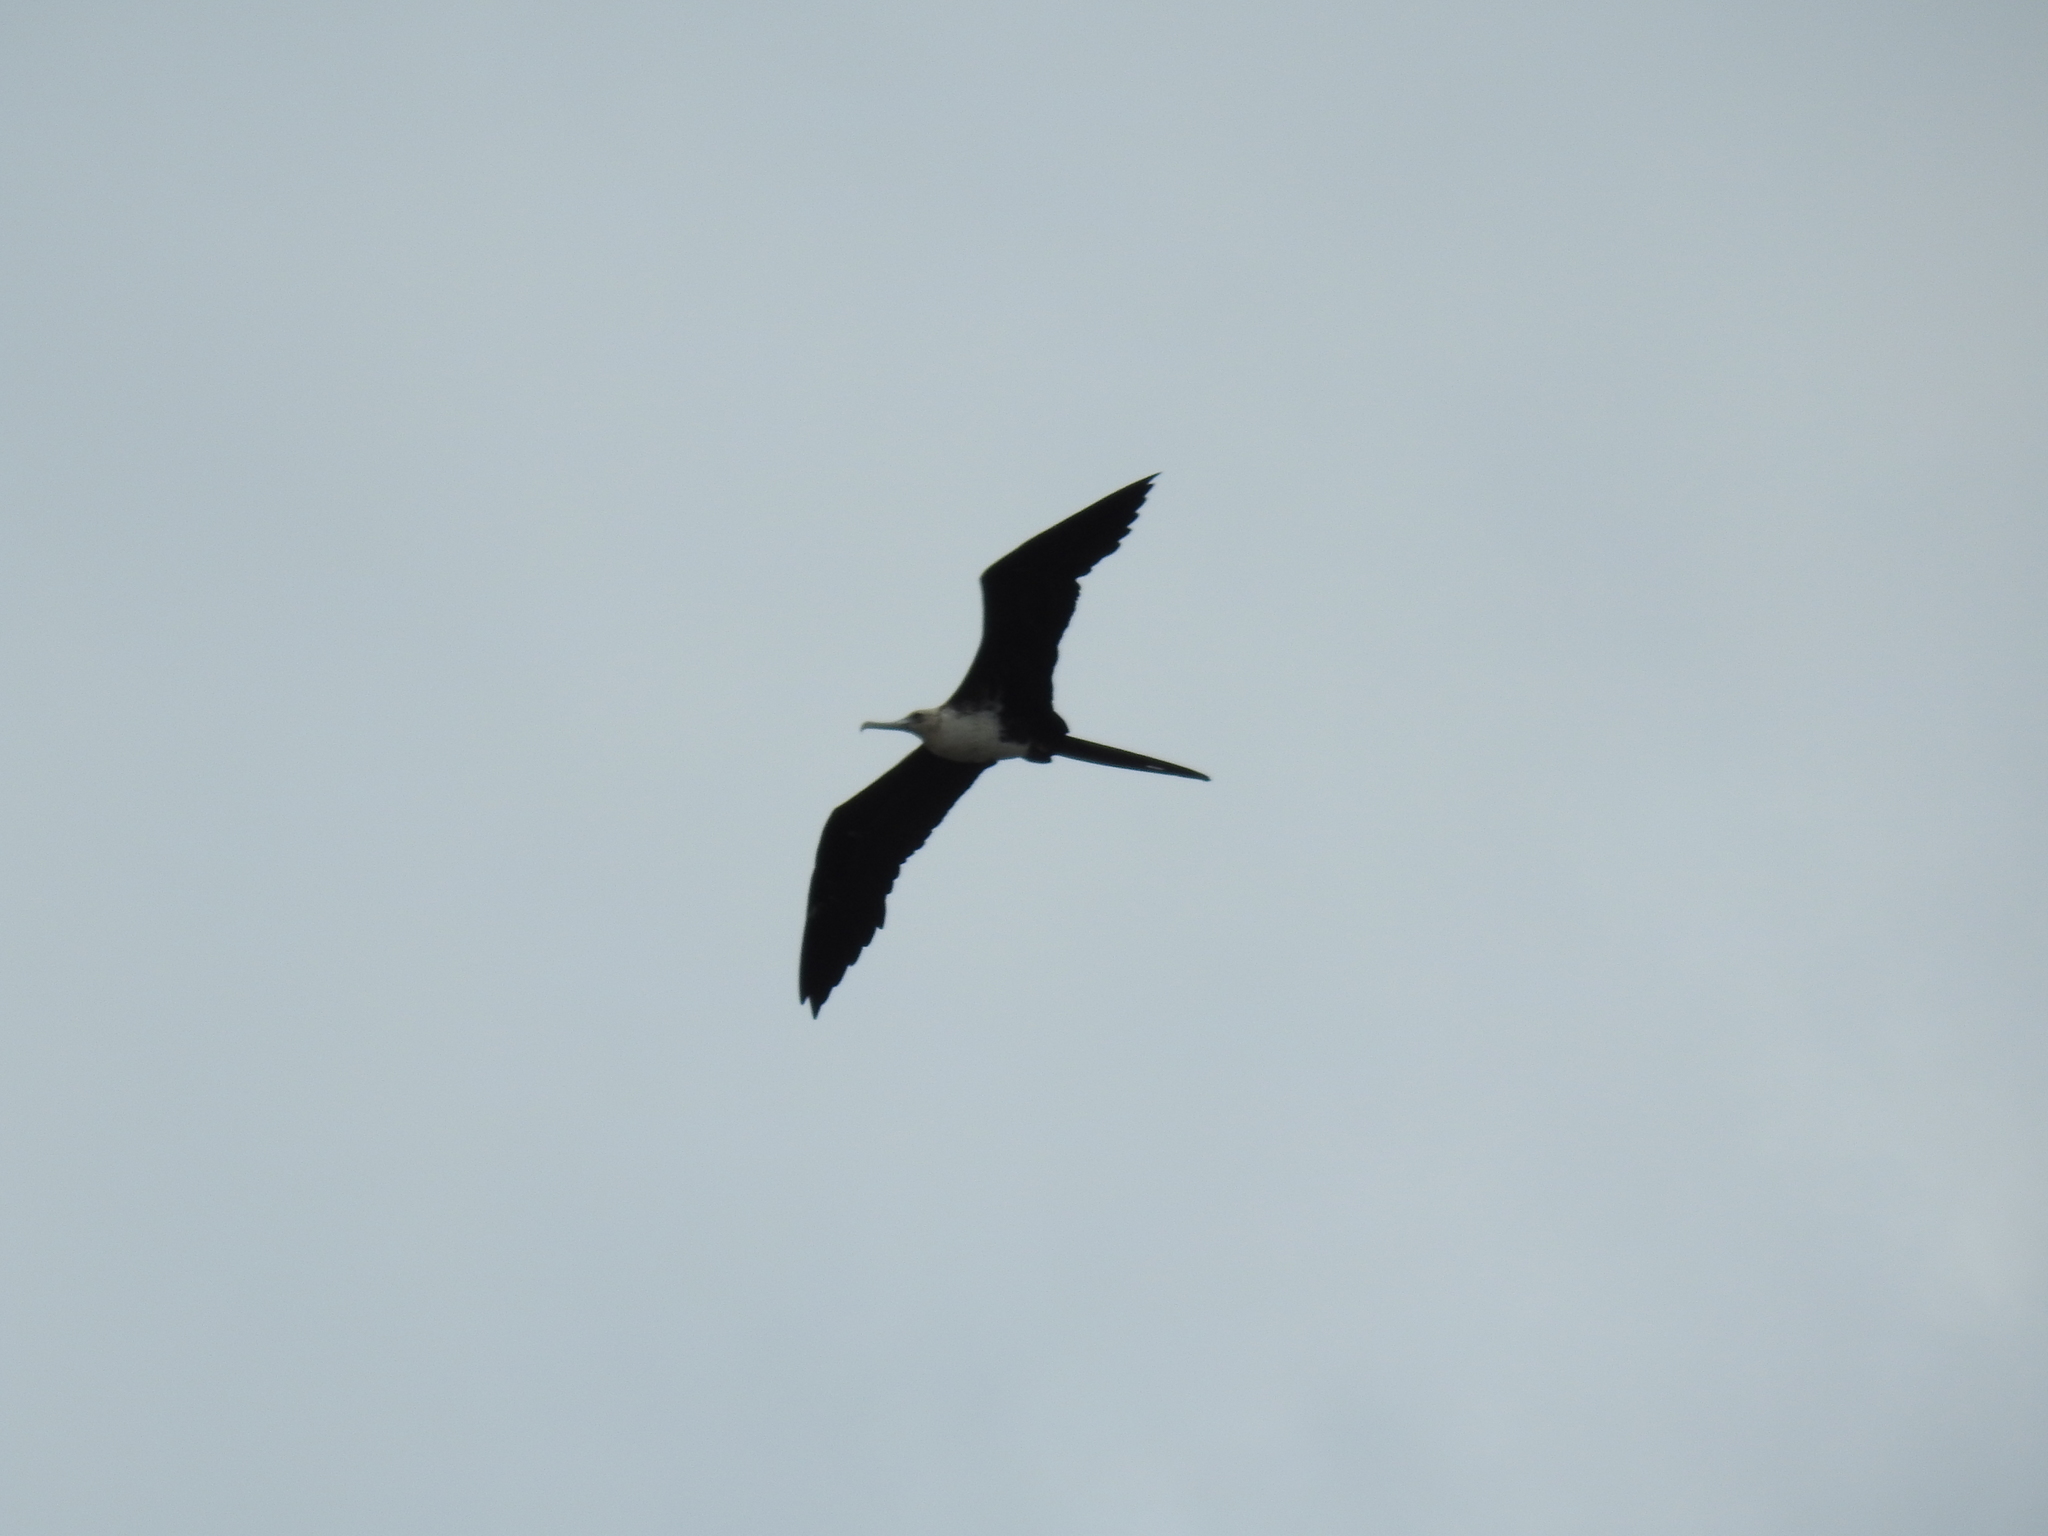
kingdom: Animalia
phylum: Chordata
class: Aves
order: Suliformes
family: Fregatidae
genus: Fregata
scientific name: Fregata magnificens
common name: Magnificent frigatebird
